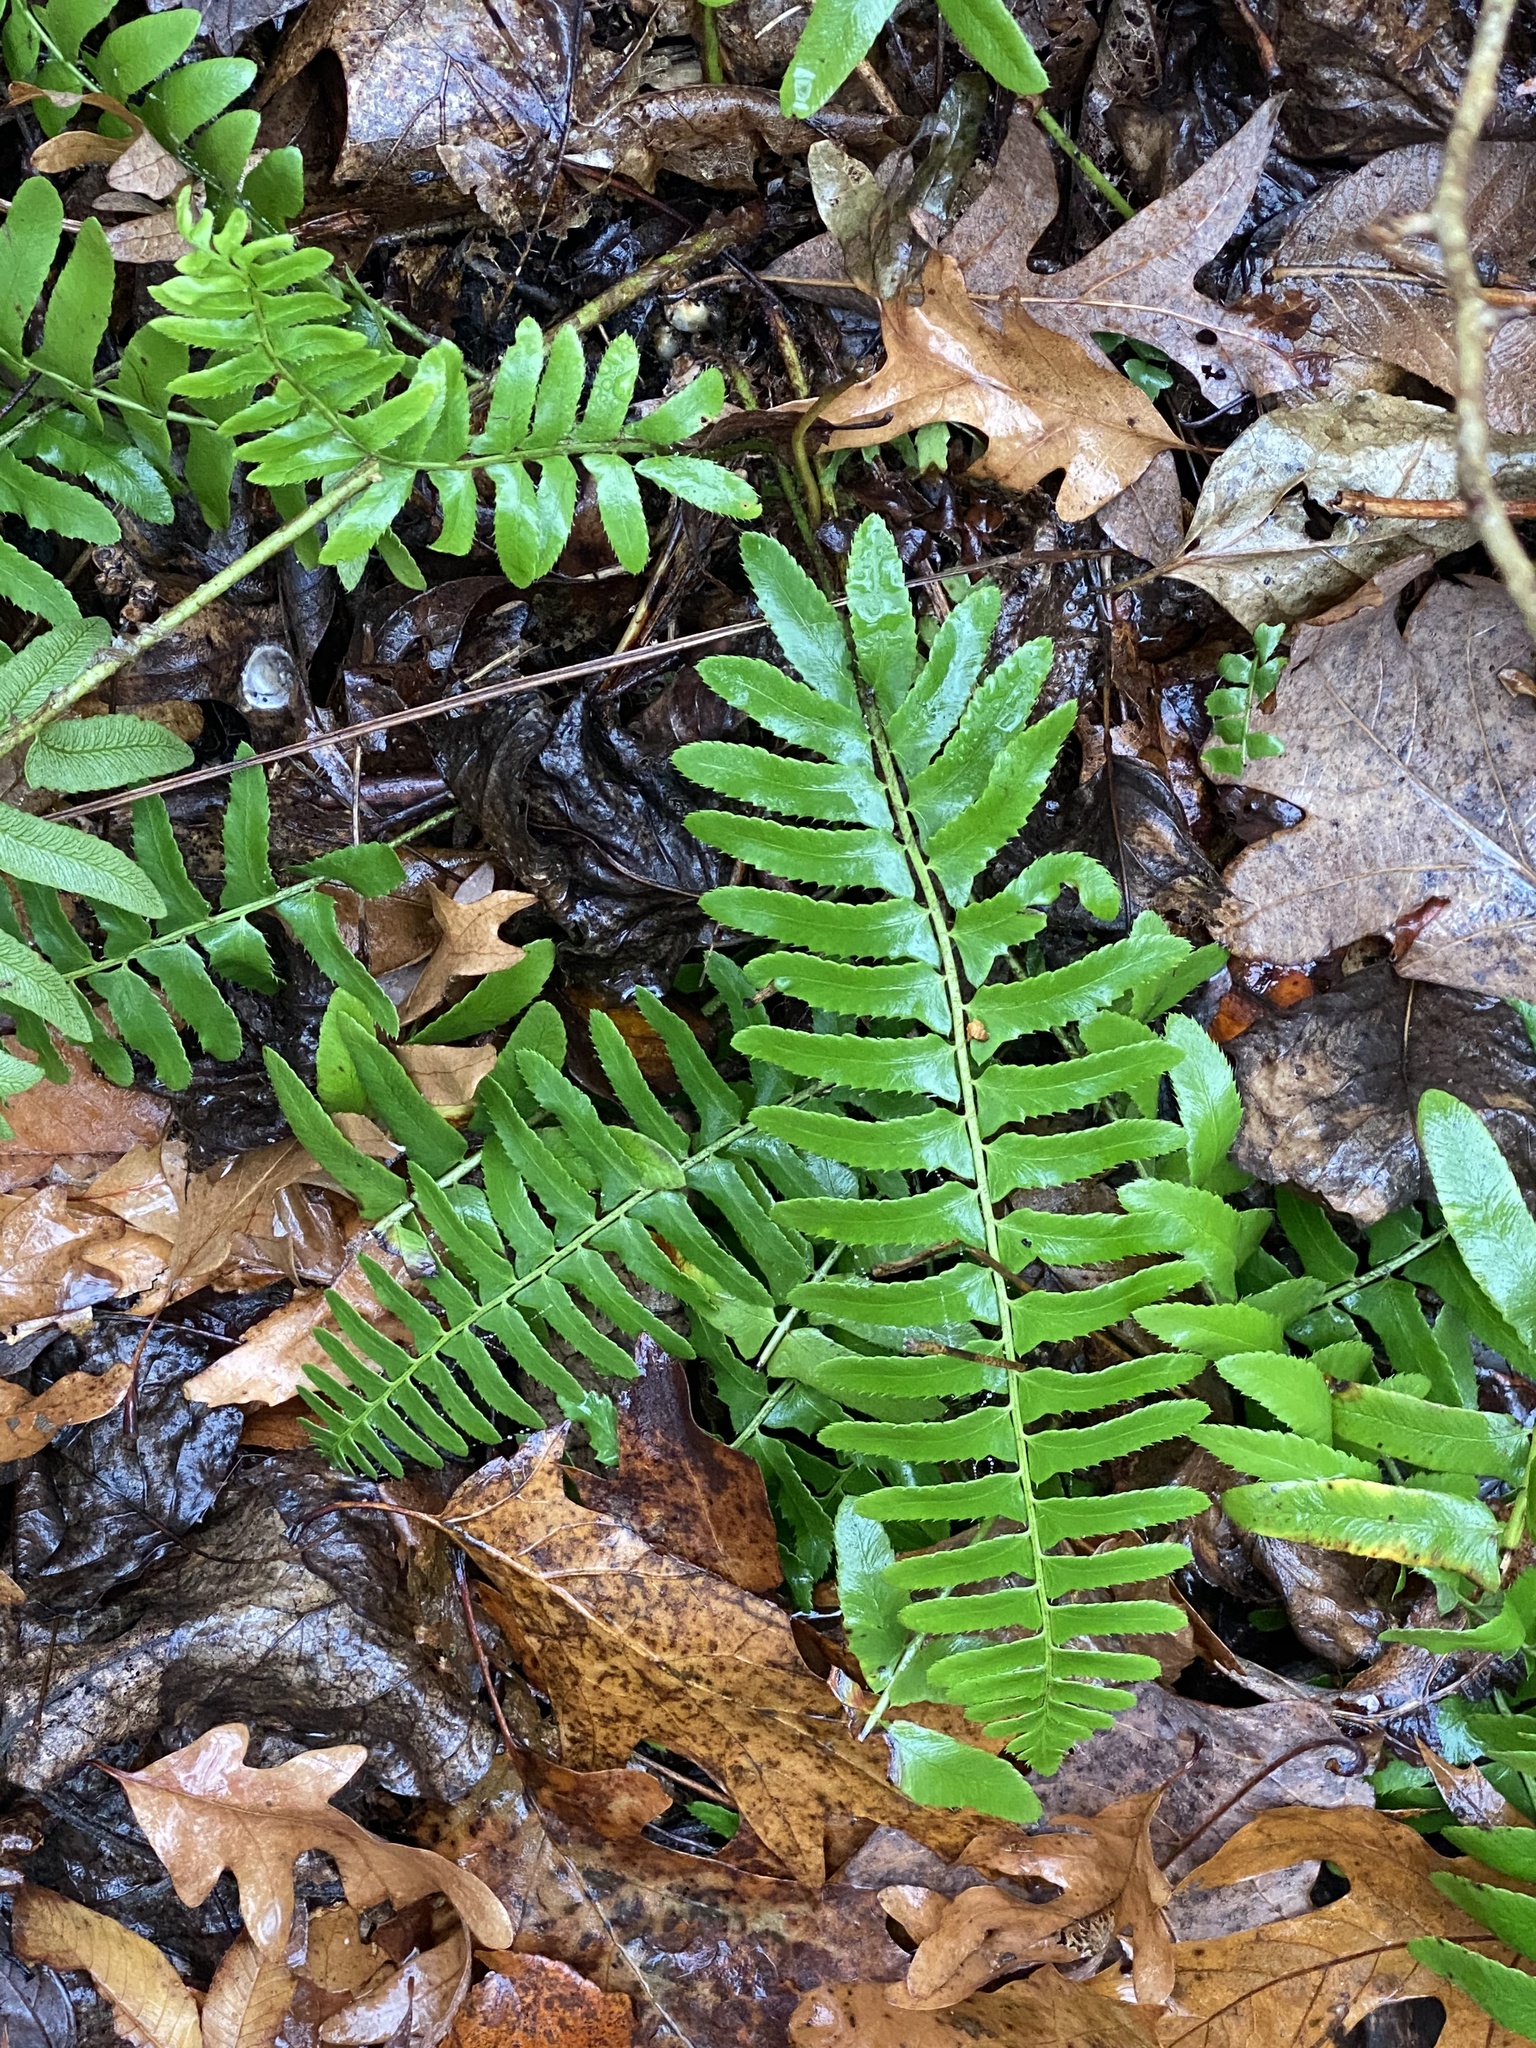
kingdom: Plantae
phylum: Tracheophyta
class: Polypodiopsida
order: Polypodiales
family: Dryopteridaceae
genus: Polystichum
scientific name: Polystichum acrostichoides
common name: Christmas fern
